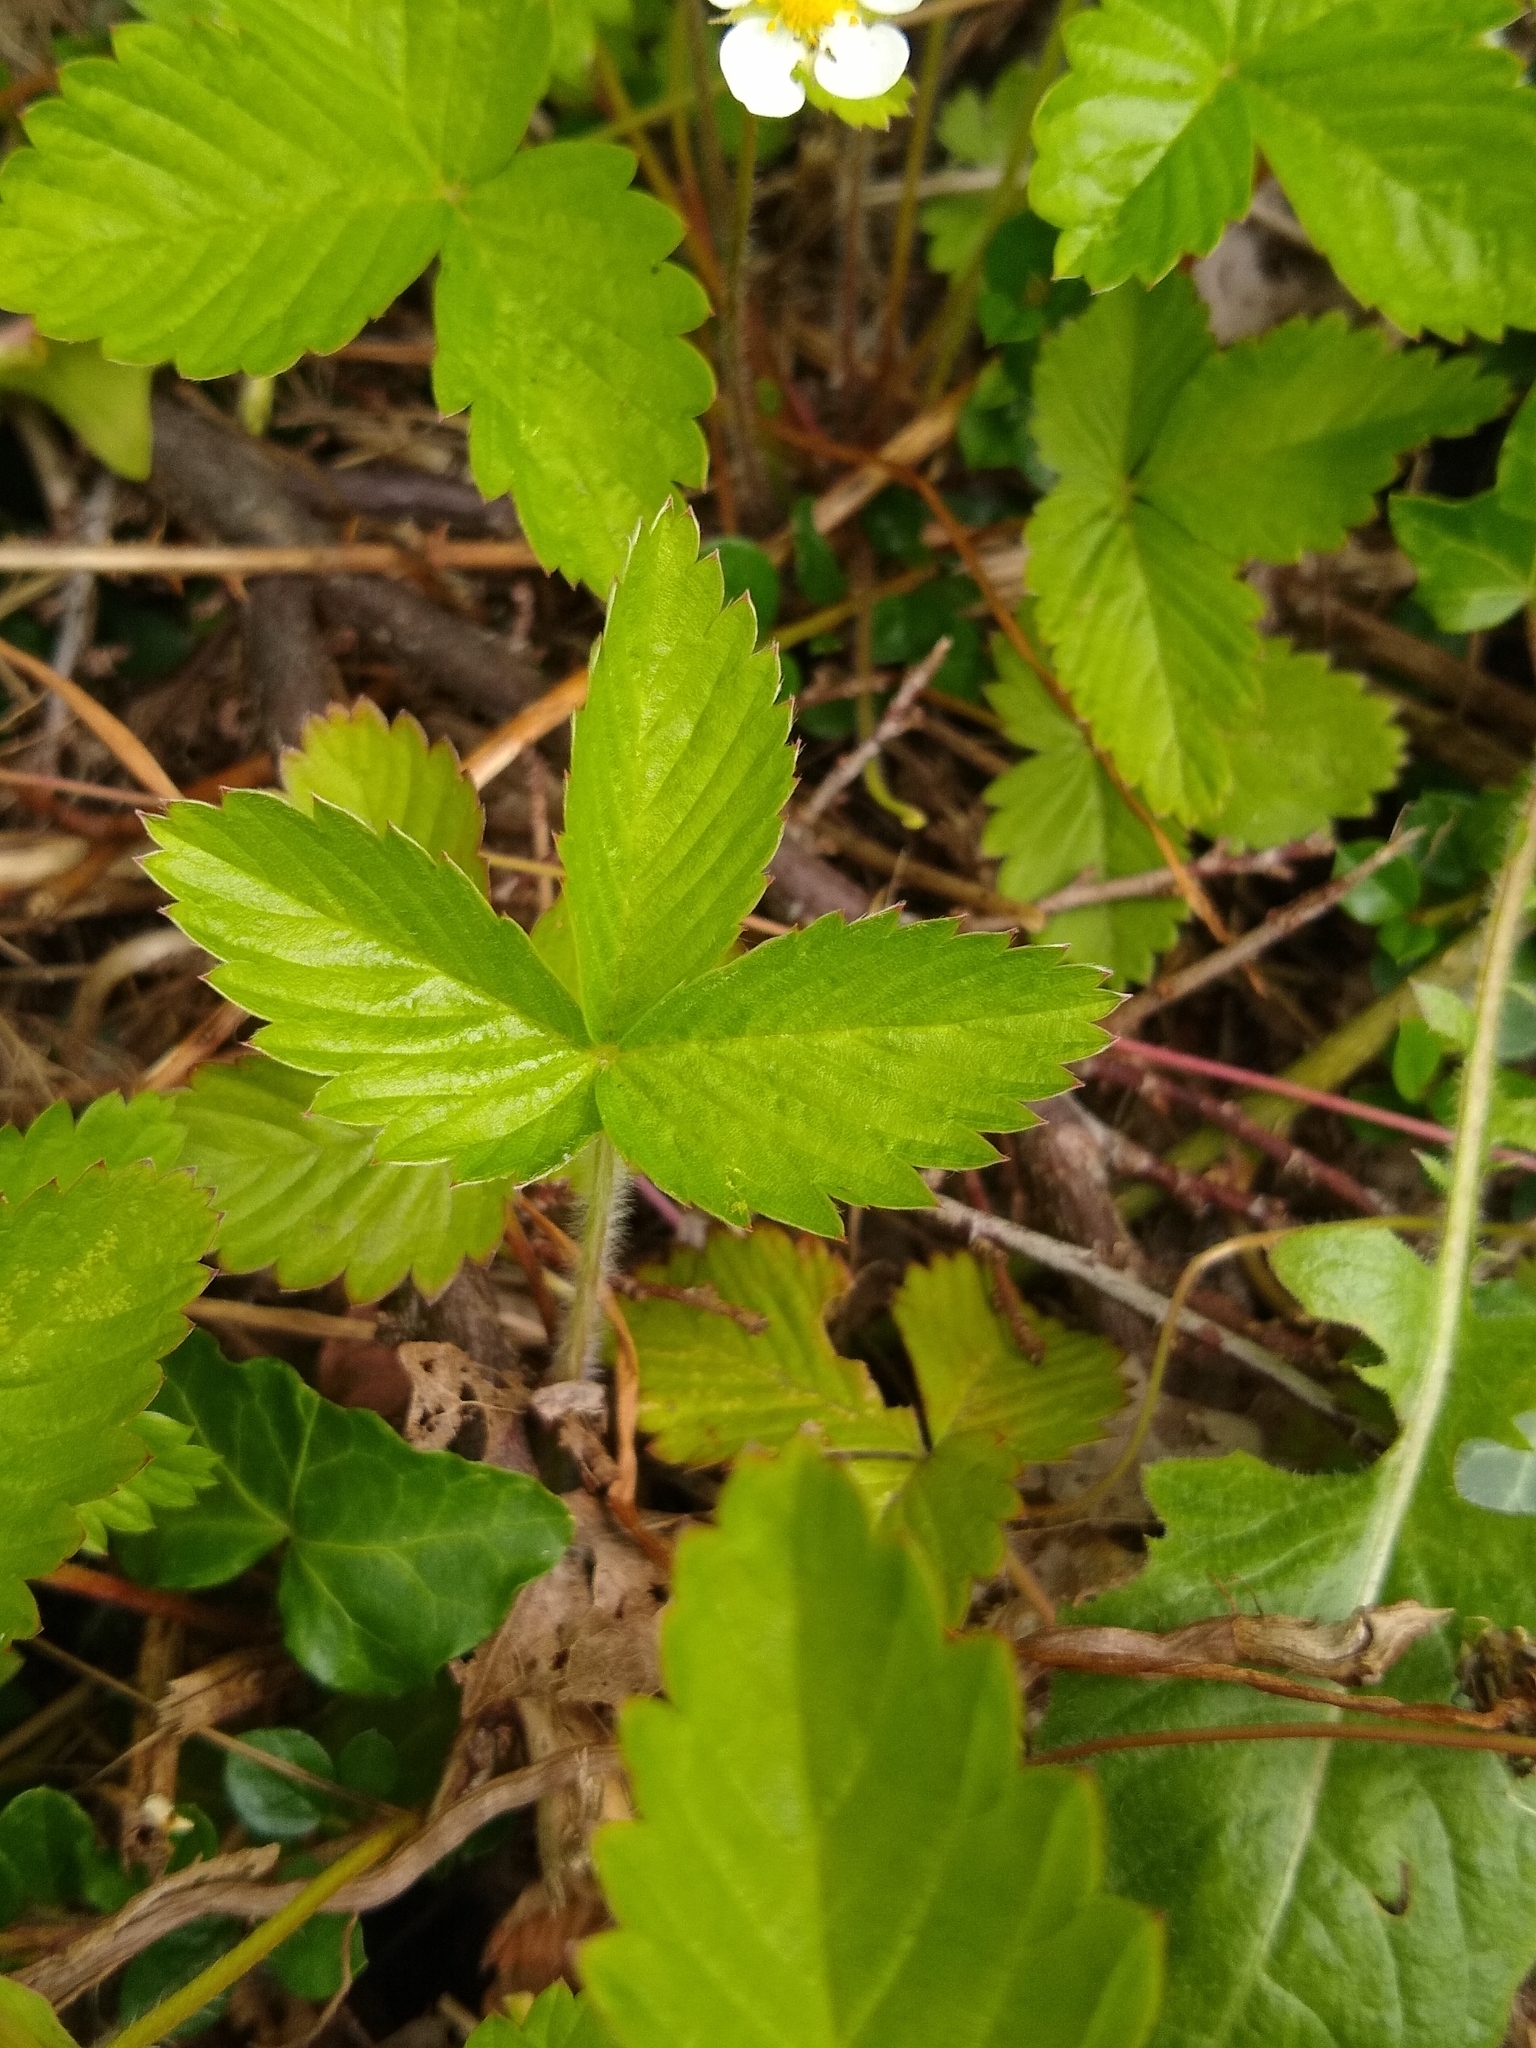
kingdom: Plantae
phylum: Tracheophyta
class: Magnoliopsida
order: Rosales
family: Rosaceae
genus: Fragaria
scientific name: Fragaria vesca
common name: Wild strawberry
